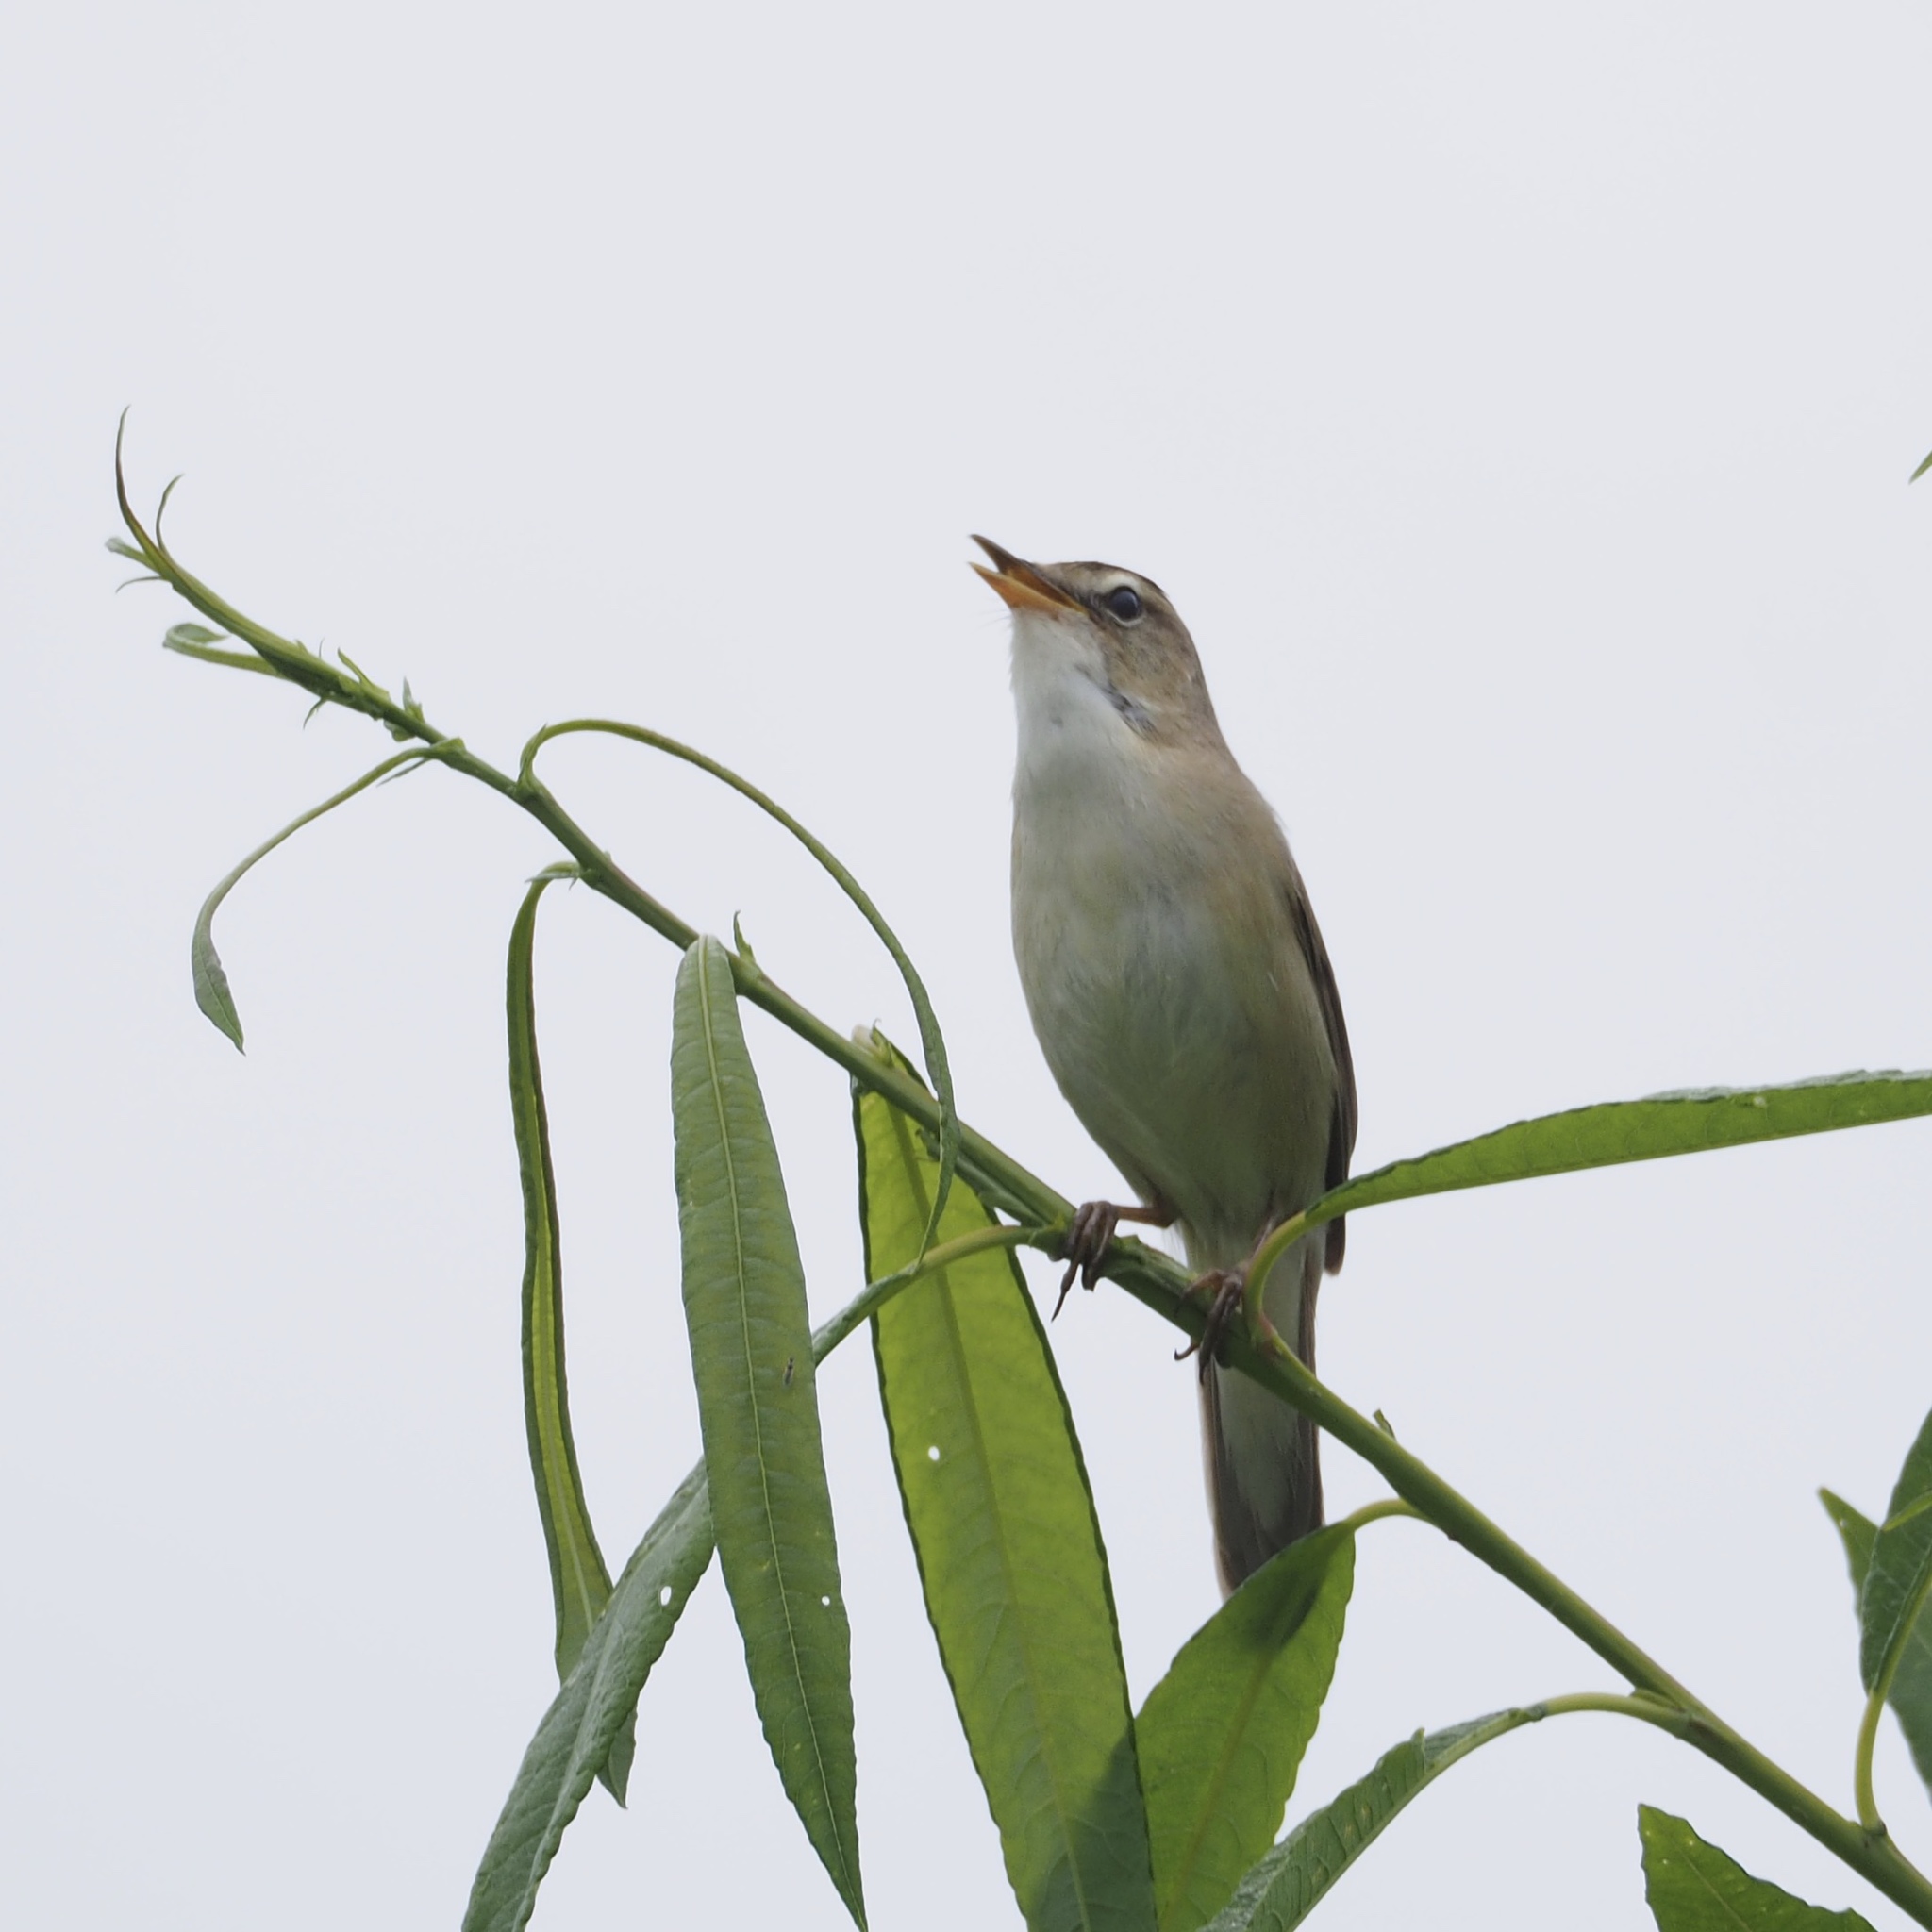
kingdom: Animalia
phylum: Chordata
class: Aves
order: Passeriformes
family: Acrocephalidae
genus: Acrocephalus
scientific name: Acrocephalus bistrigiceps
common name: Black-browed reed warbler
